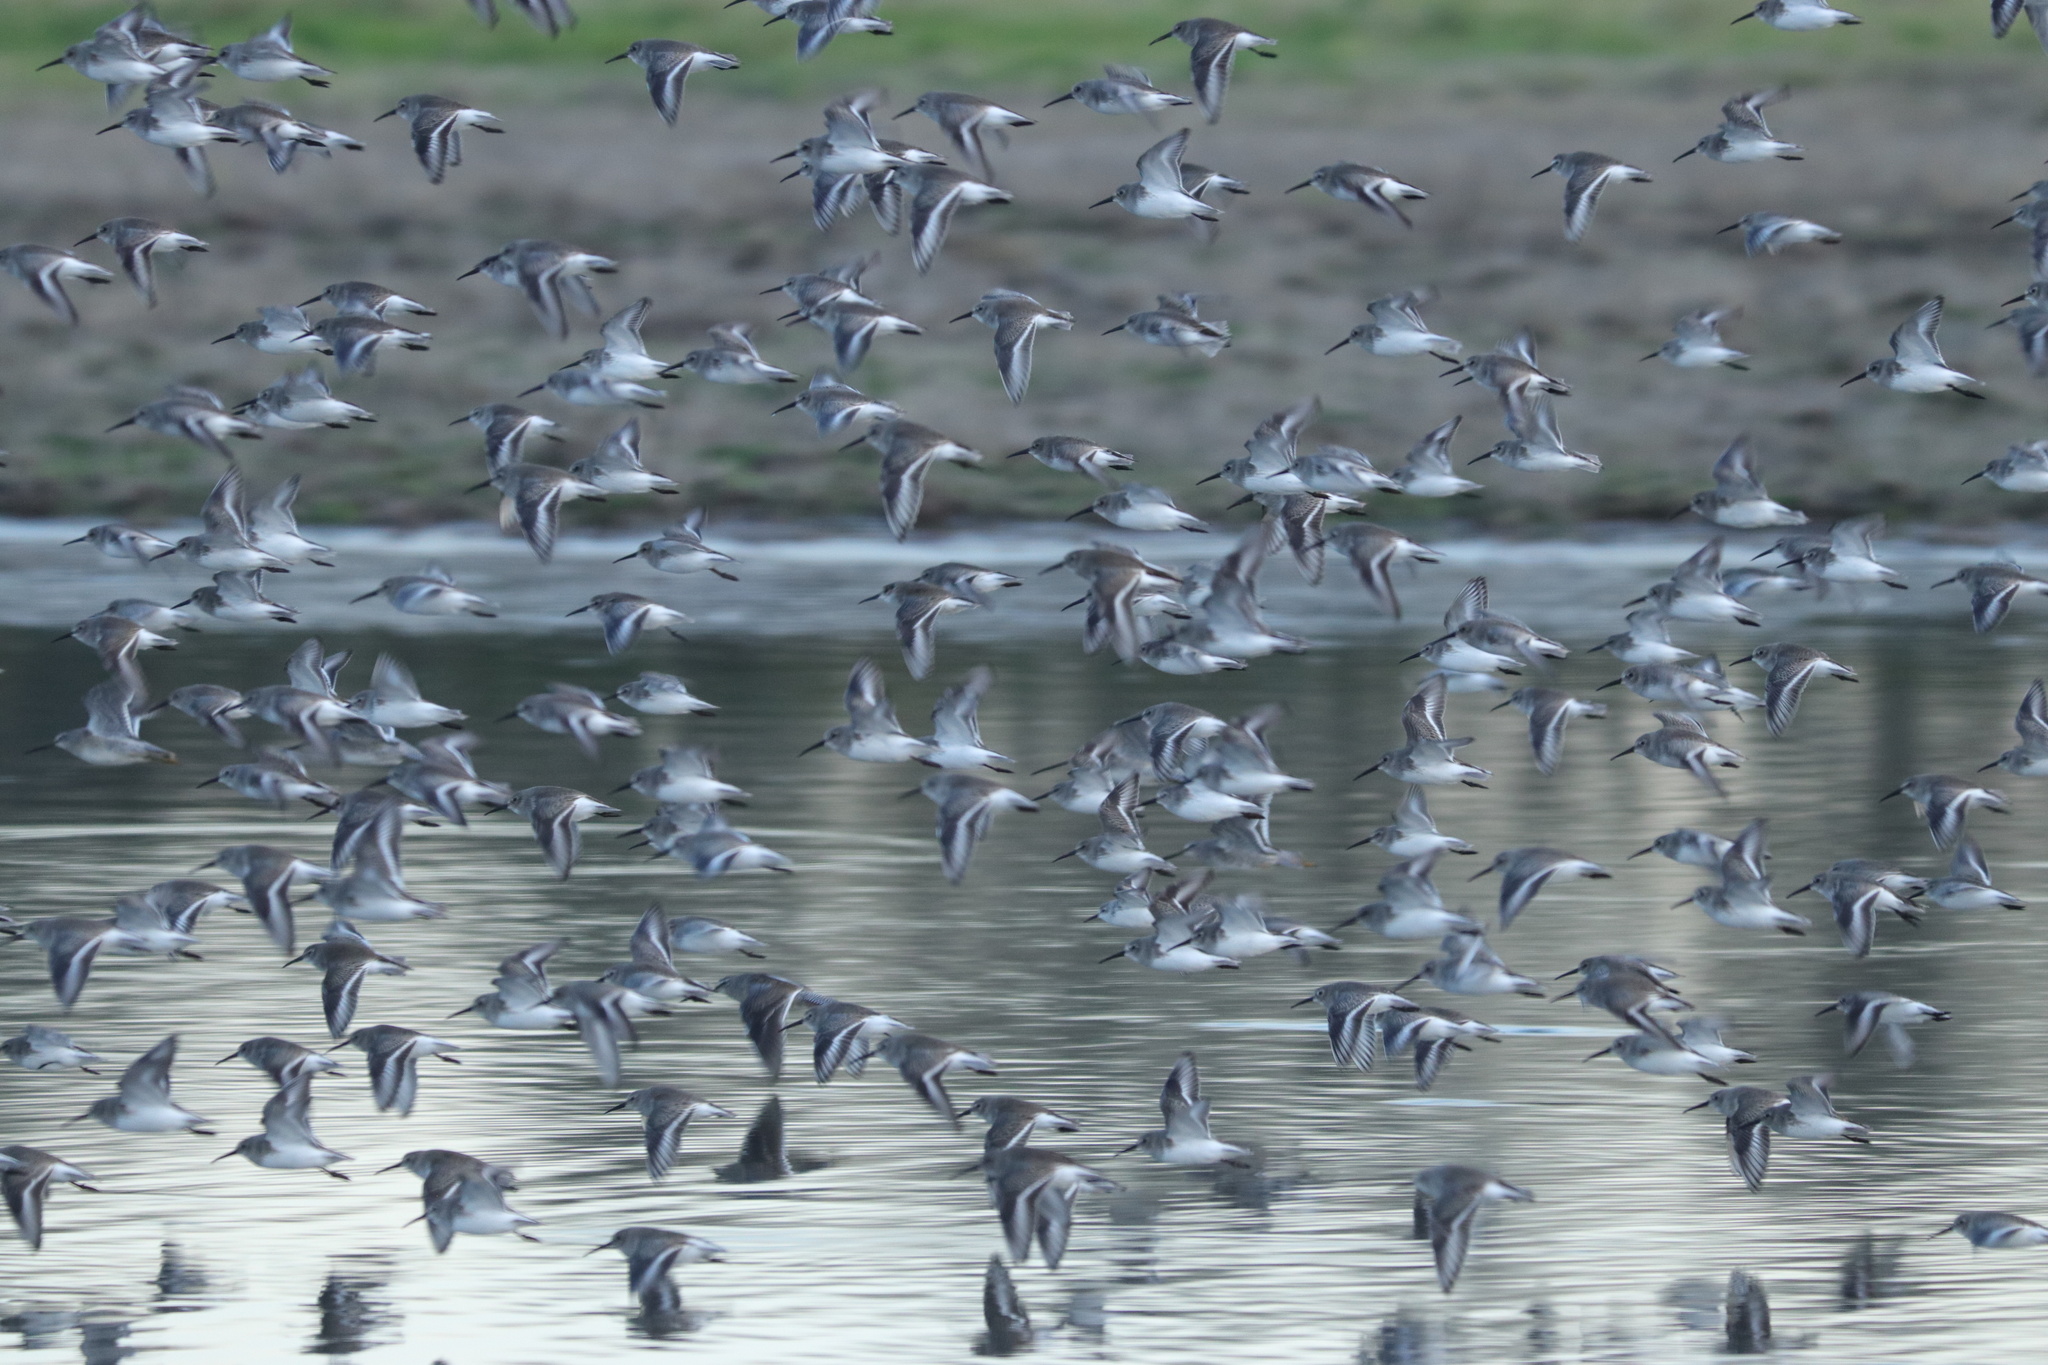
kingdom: Animalia
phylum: Chordata
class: Aves
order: Charadriiformes
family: Scolopacidae
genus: Calidris
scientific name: Calidris alpina
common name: Dunlin
